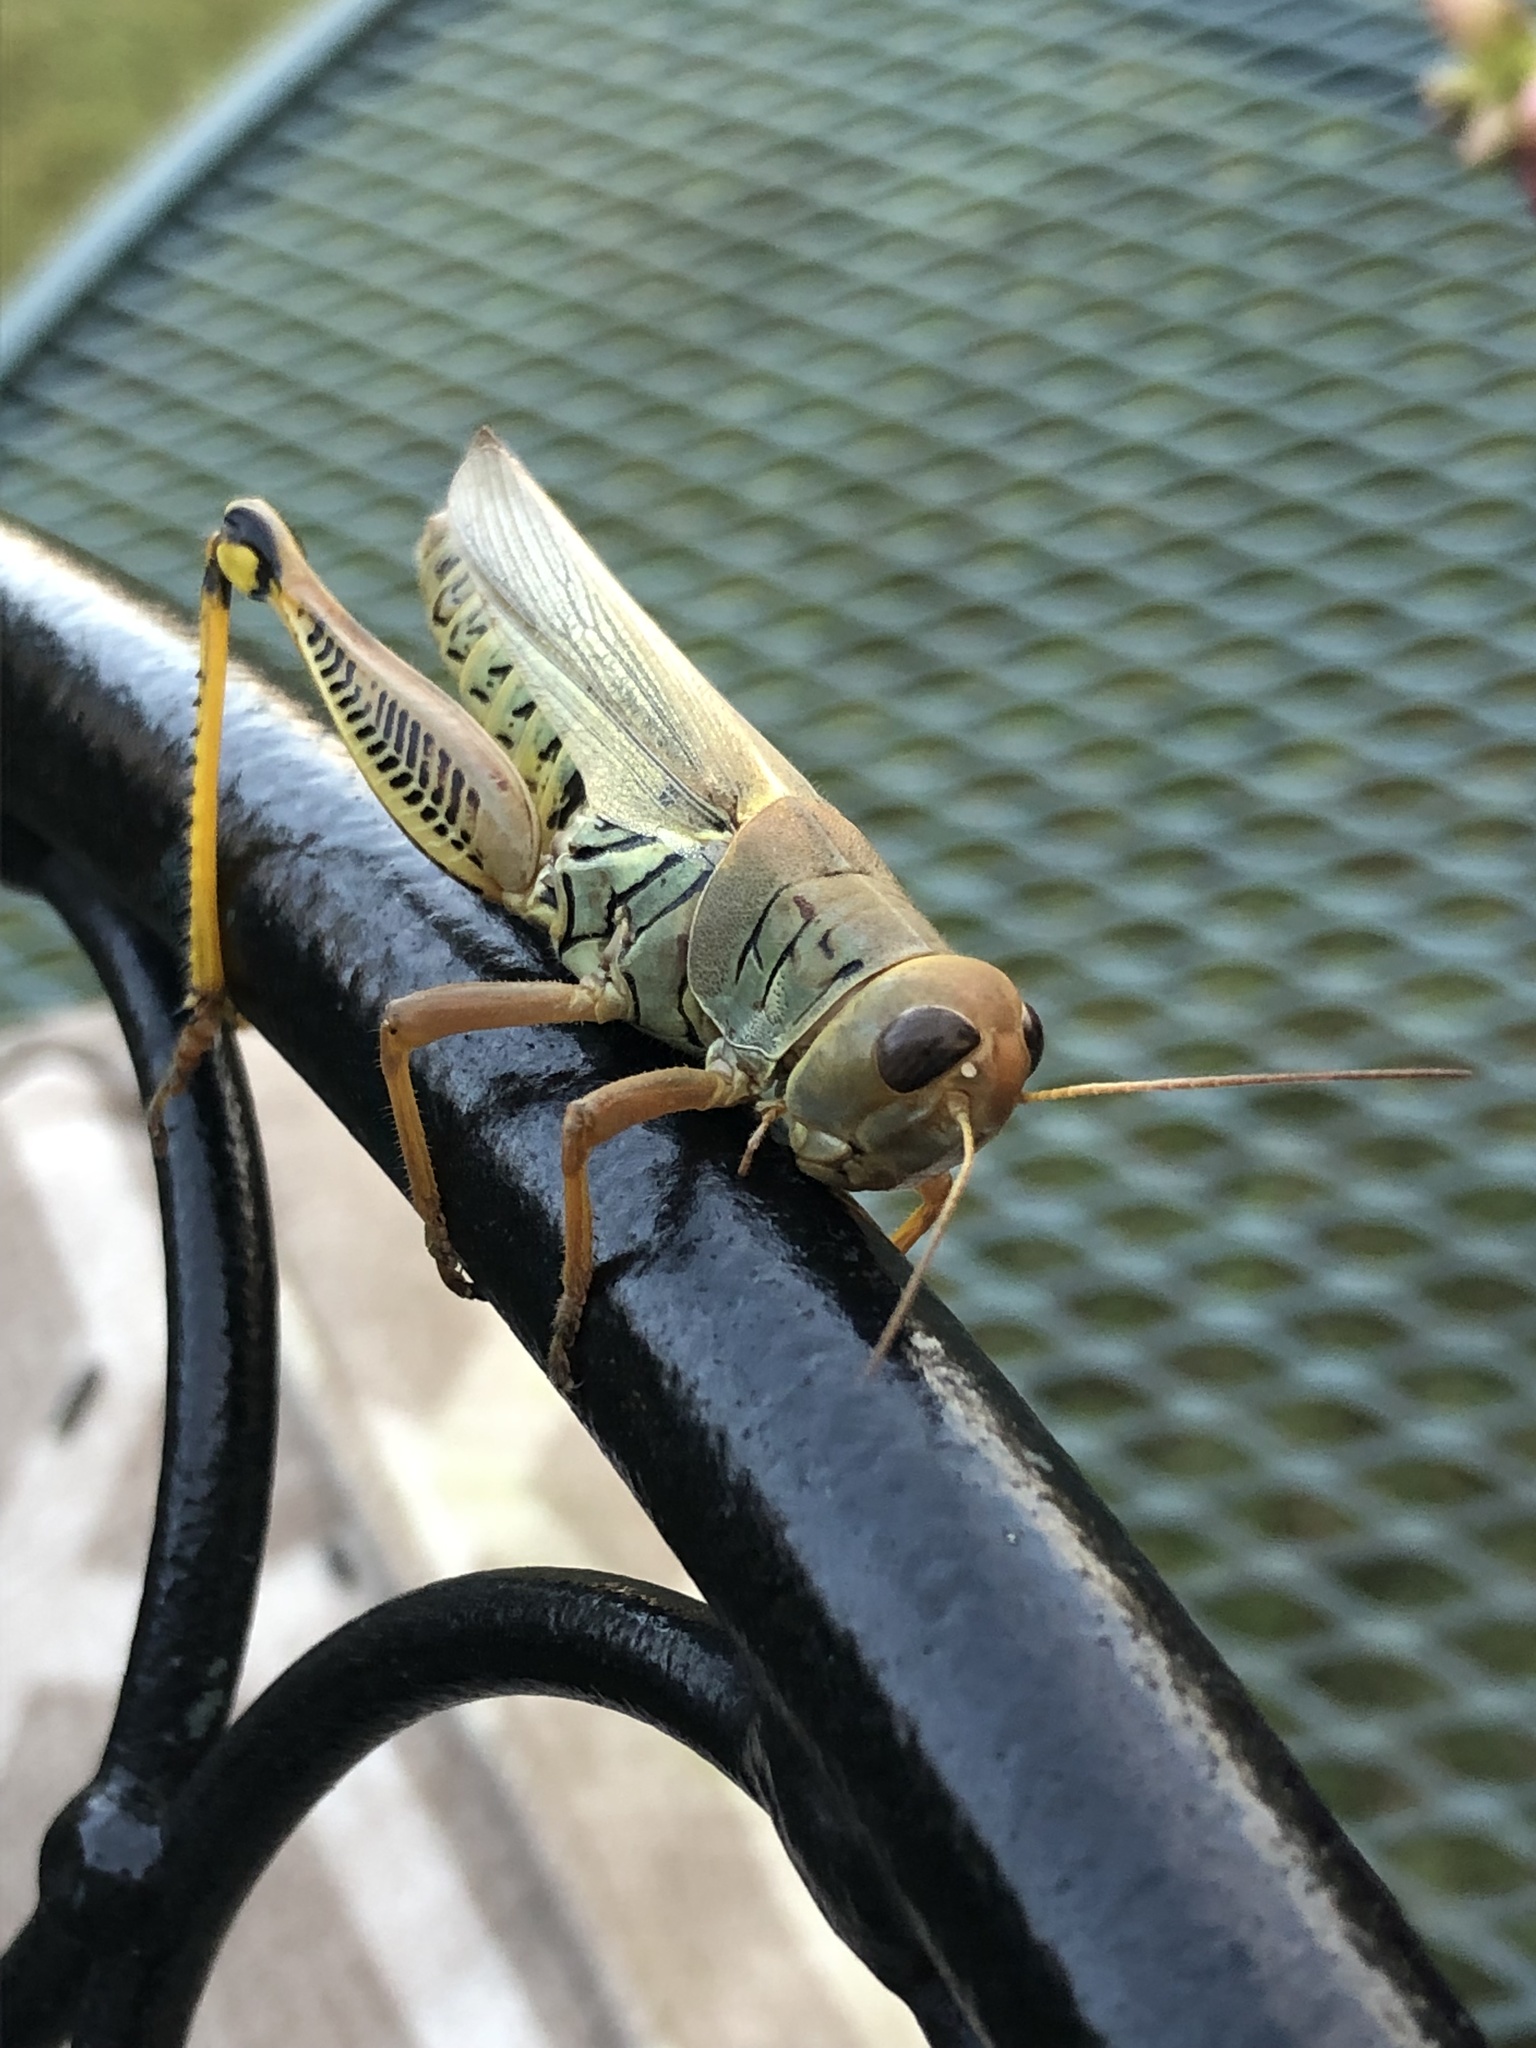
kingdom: Animalia
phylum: Arthropoda
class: Insecta
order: Orthoptera
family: Acrididae
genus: Melanoplus
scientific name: Melanoplus differentialis
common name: Differential grasshopper
